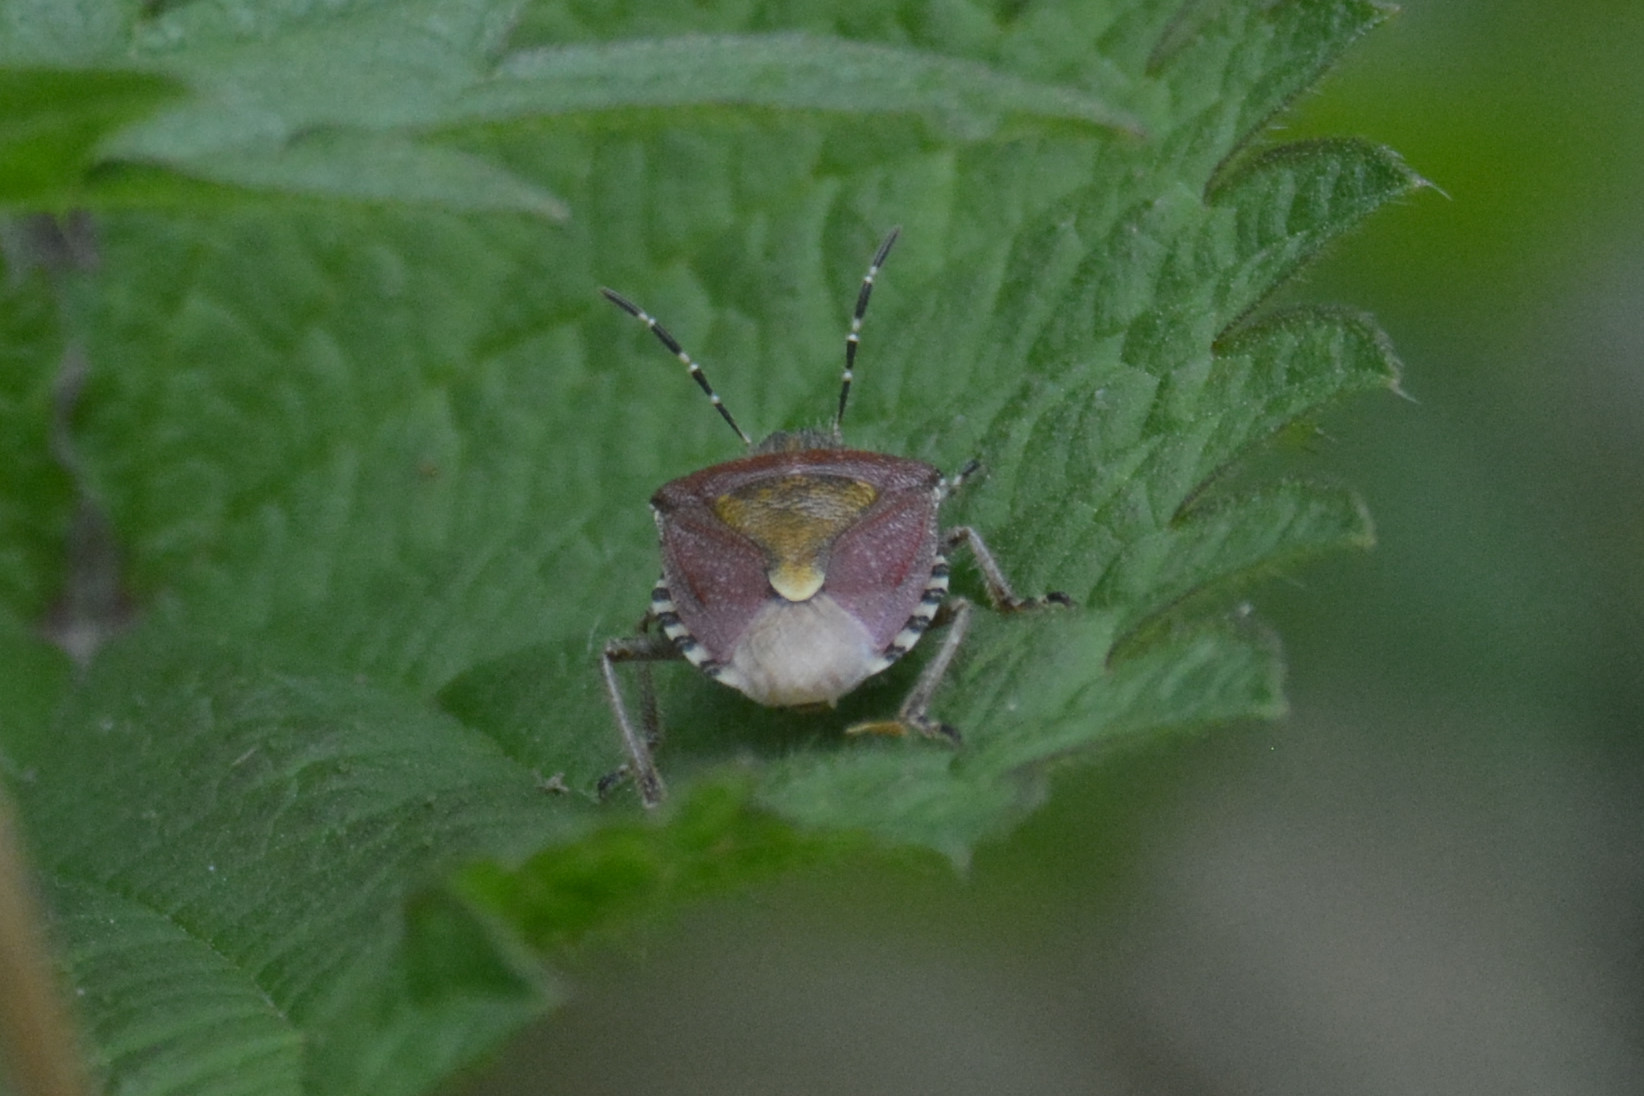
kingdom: Animalia
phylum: Arthropoda
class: Insecta
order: Hemiptera
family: Pentatomidae
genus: Dolycoris
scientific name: Dolycoris baccarum
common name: Sloe bug
